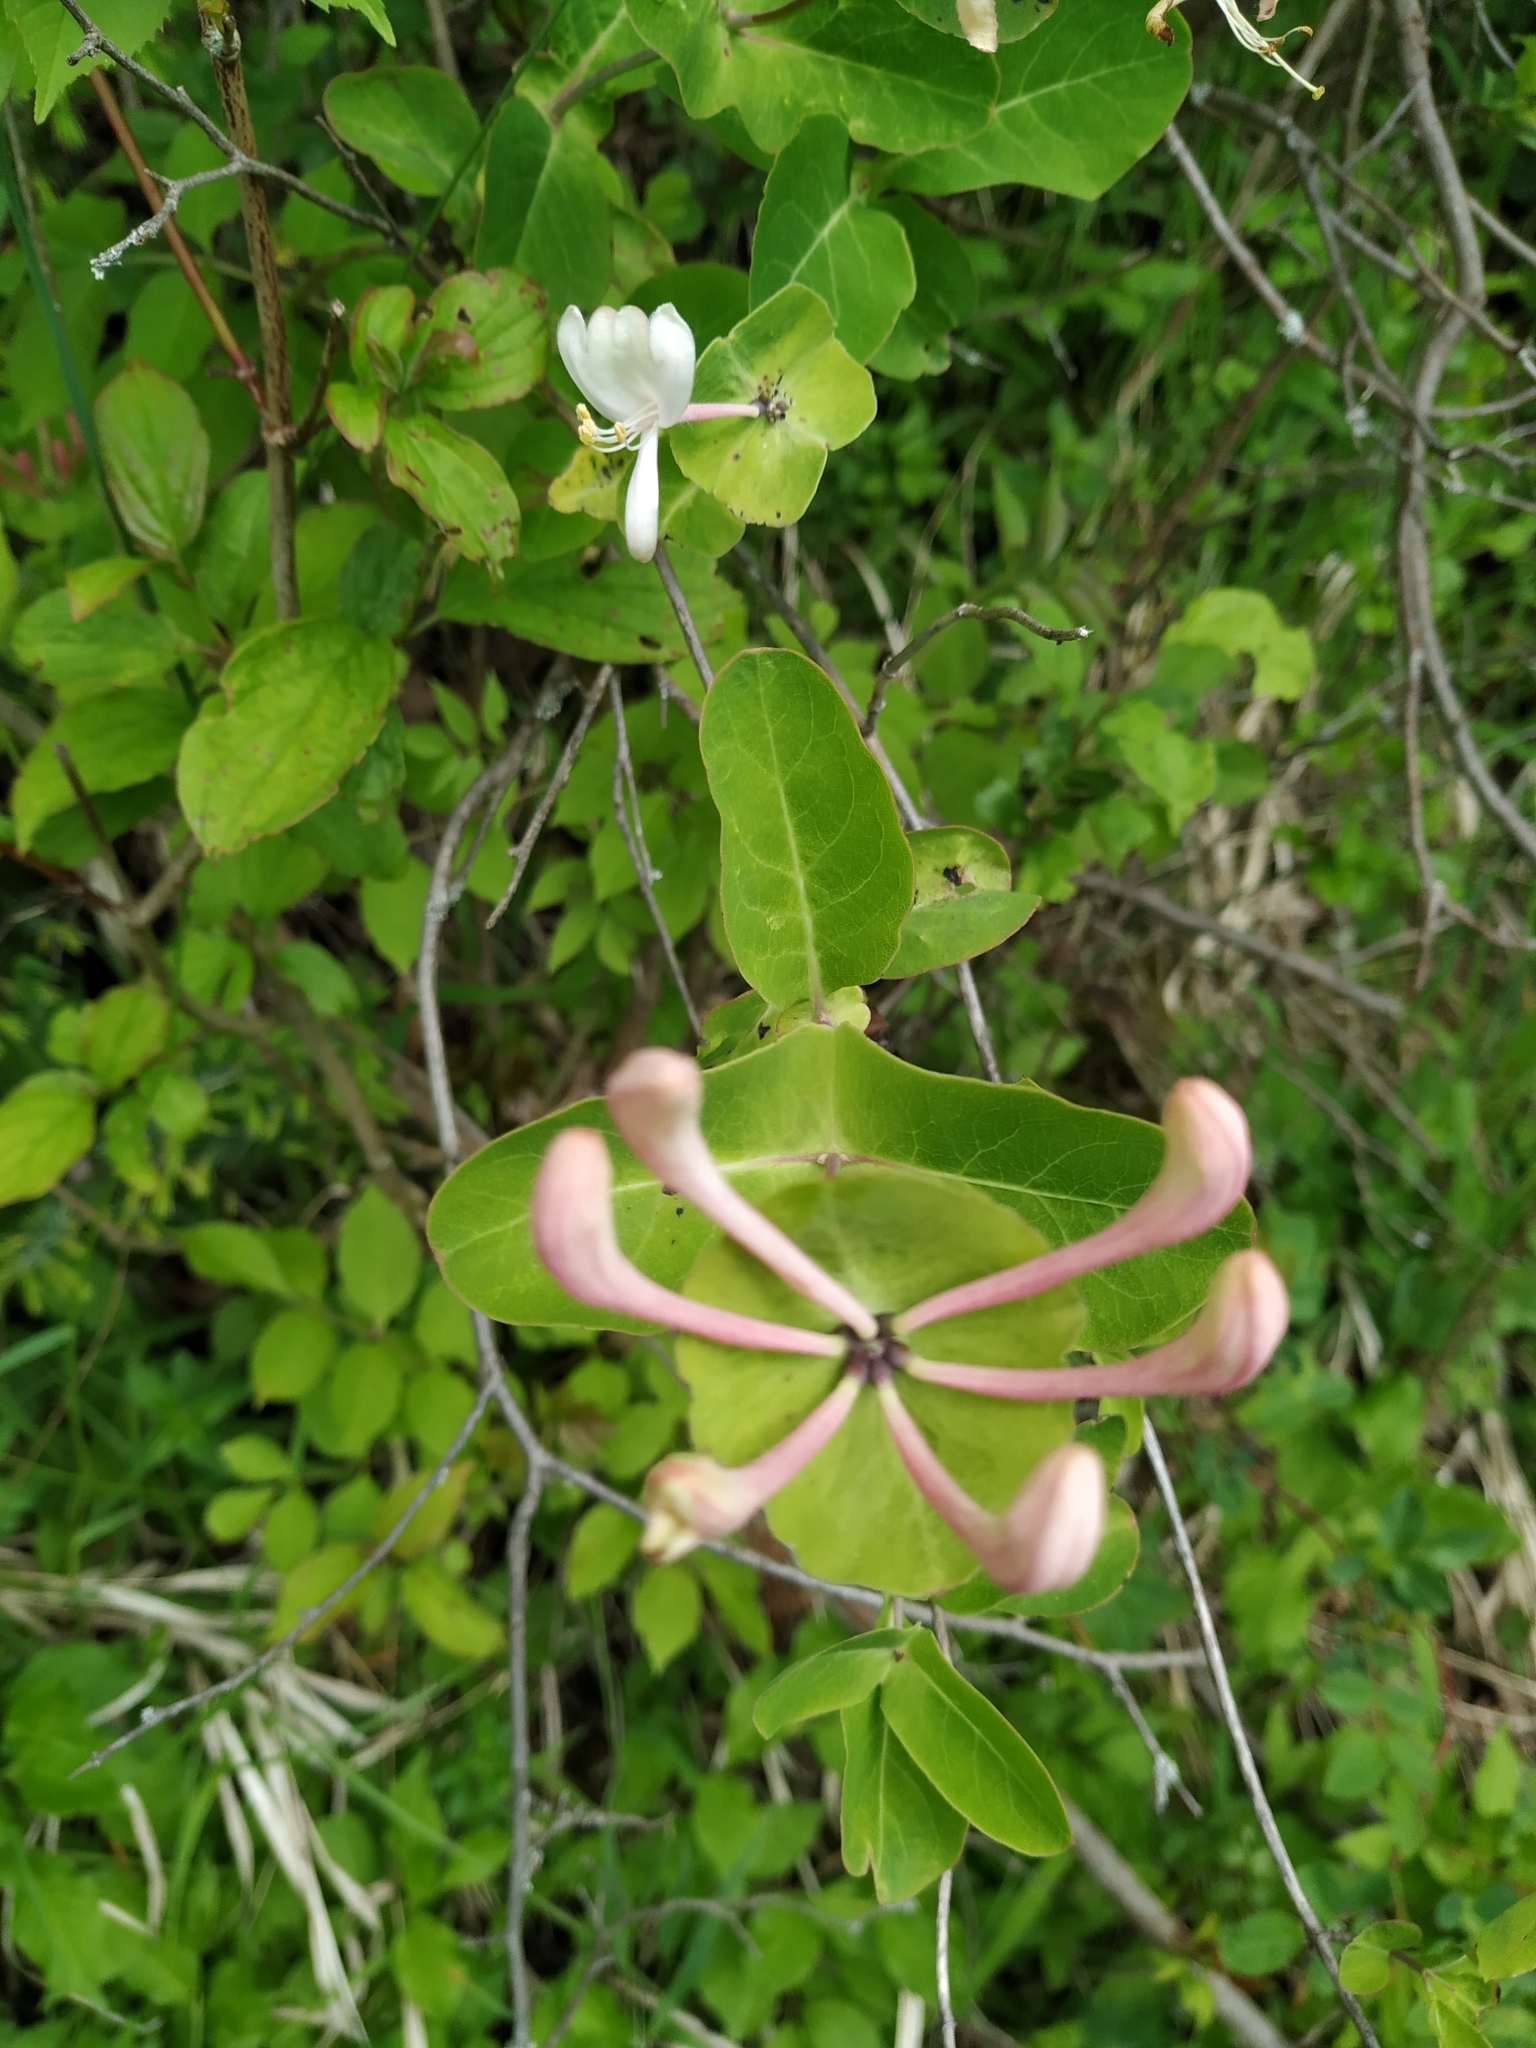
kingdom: Plantae
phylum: Tracheophyta
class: Magnoliopsida
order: Dipsacales
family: Caprifoliaceae
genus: Lonicera
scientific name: Lonicera caprifolium
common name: Perfoliate honeysuckle
